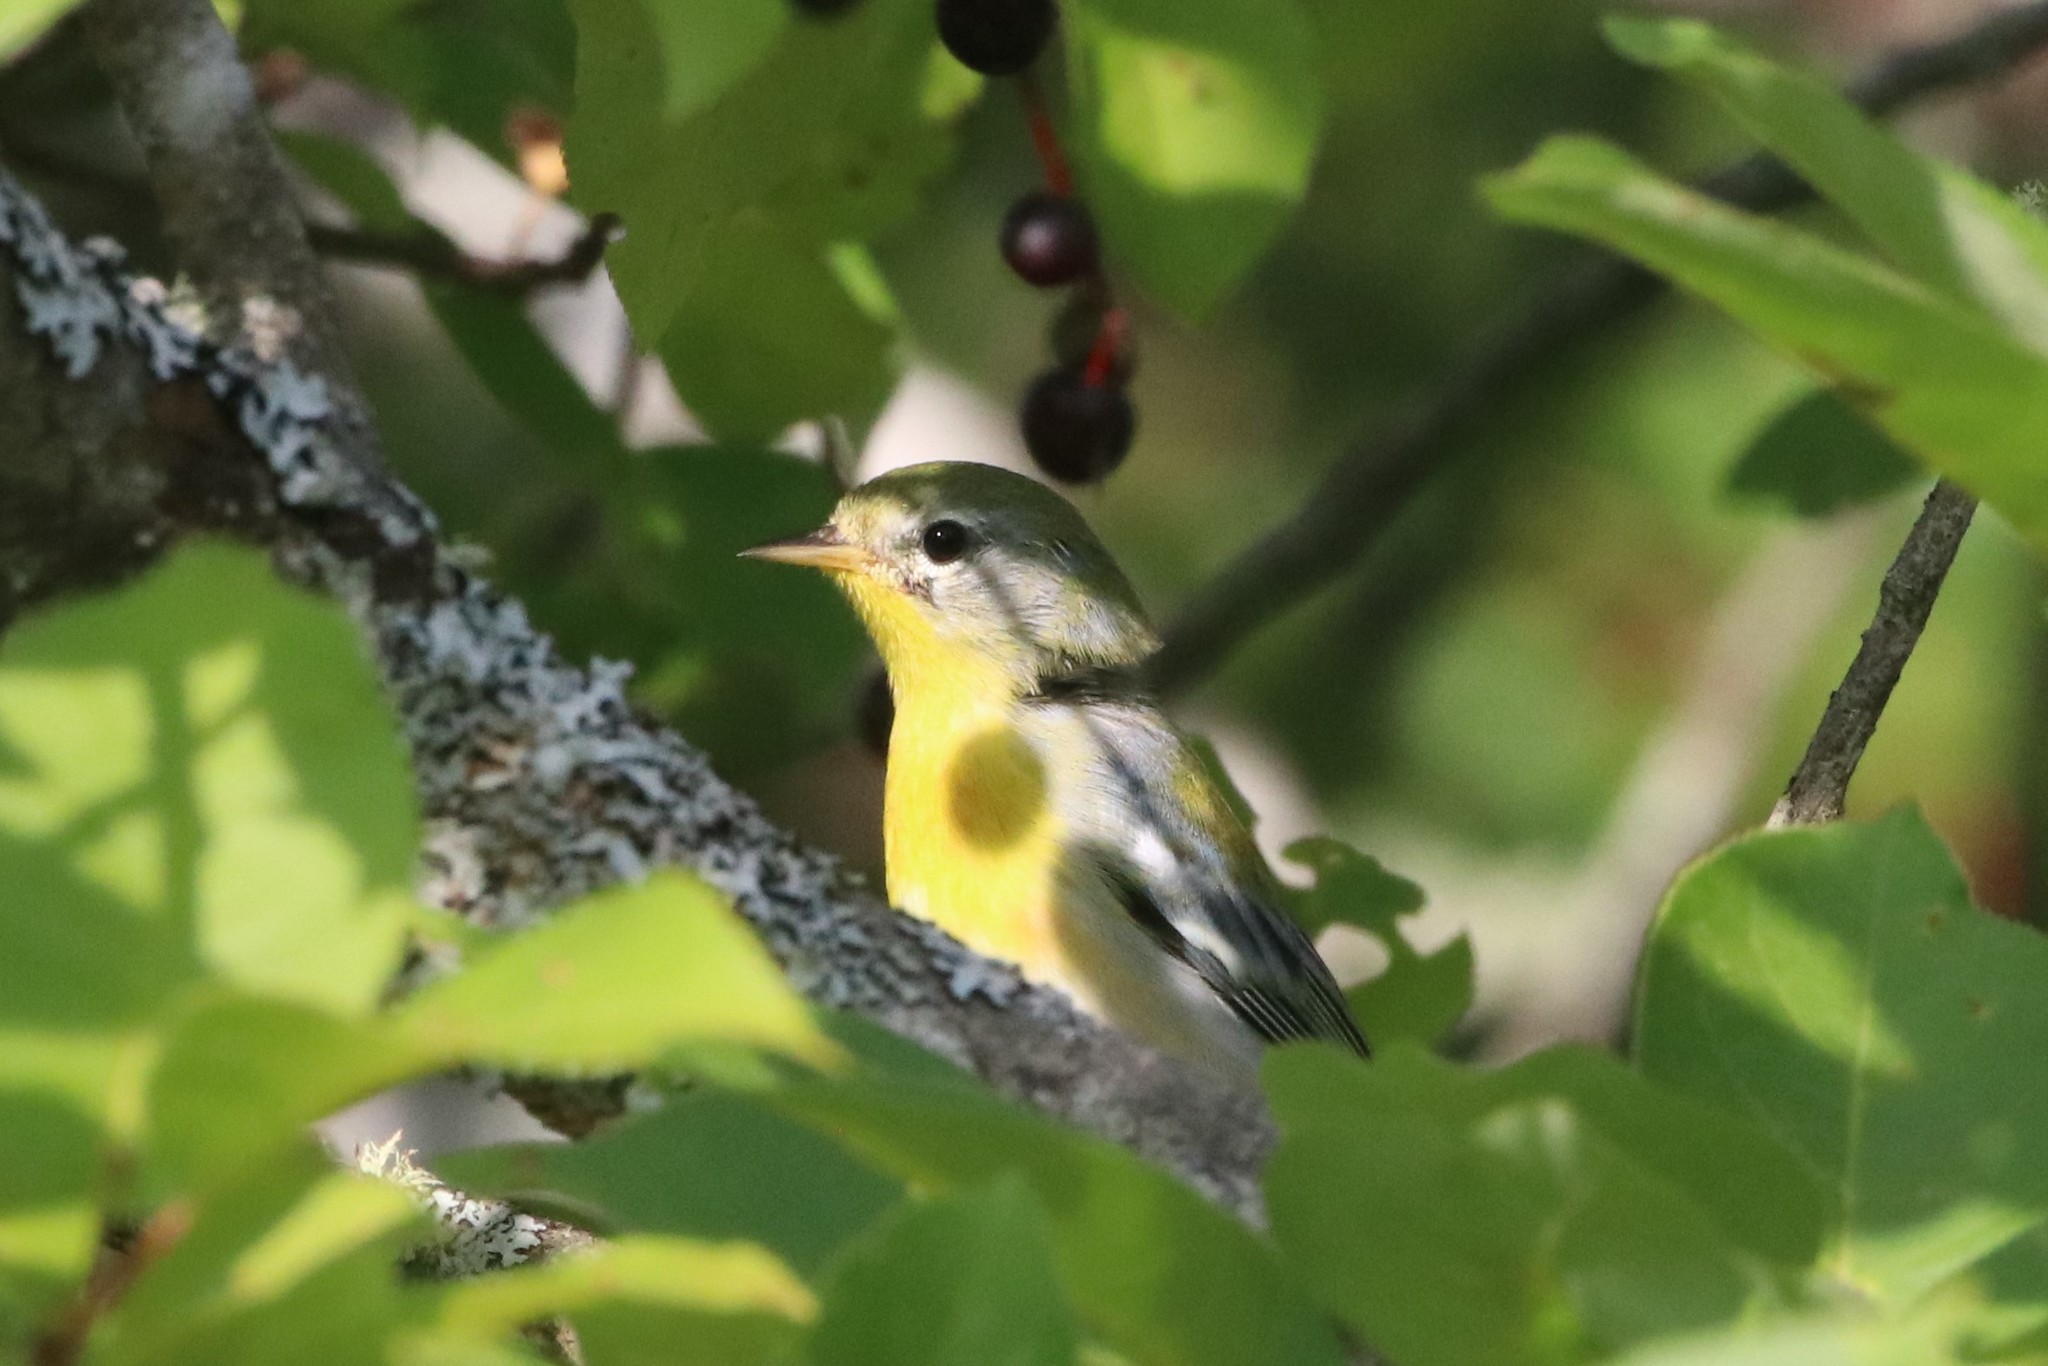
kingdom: Animalia
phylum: Chordata
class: Aves
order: Passeriformes
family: Parulidae
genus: Setophaga
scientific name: Setophaga americana
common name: Northern parula
